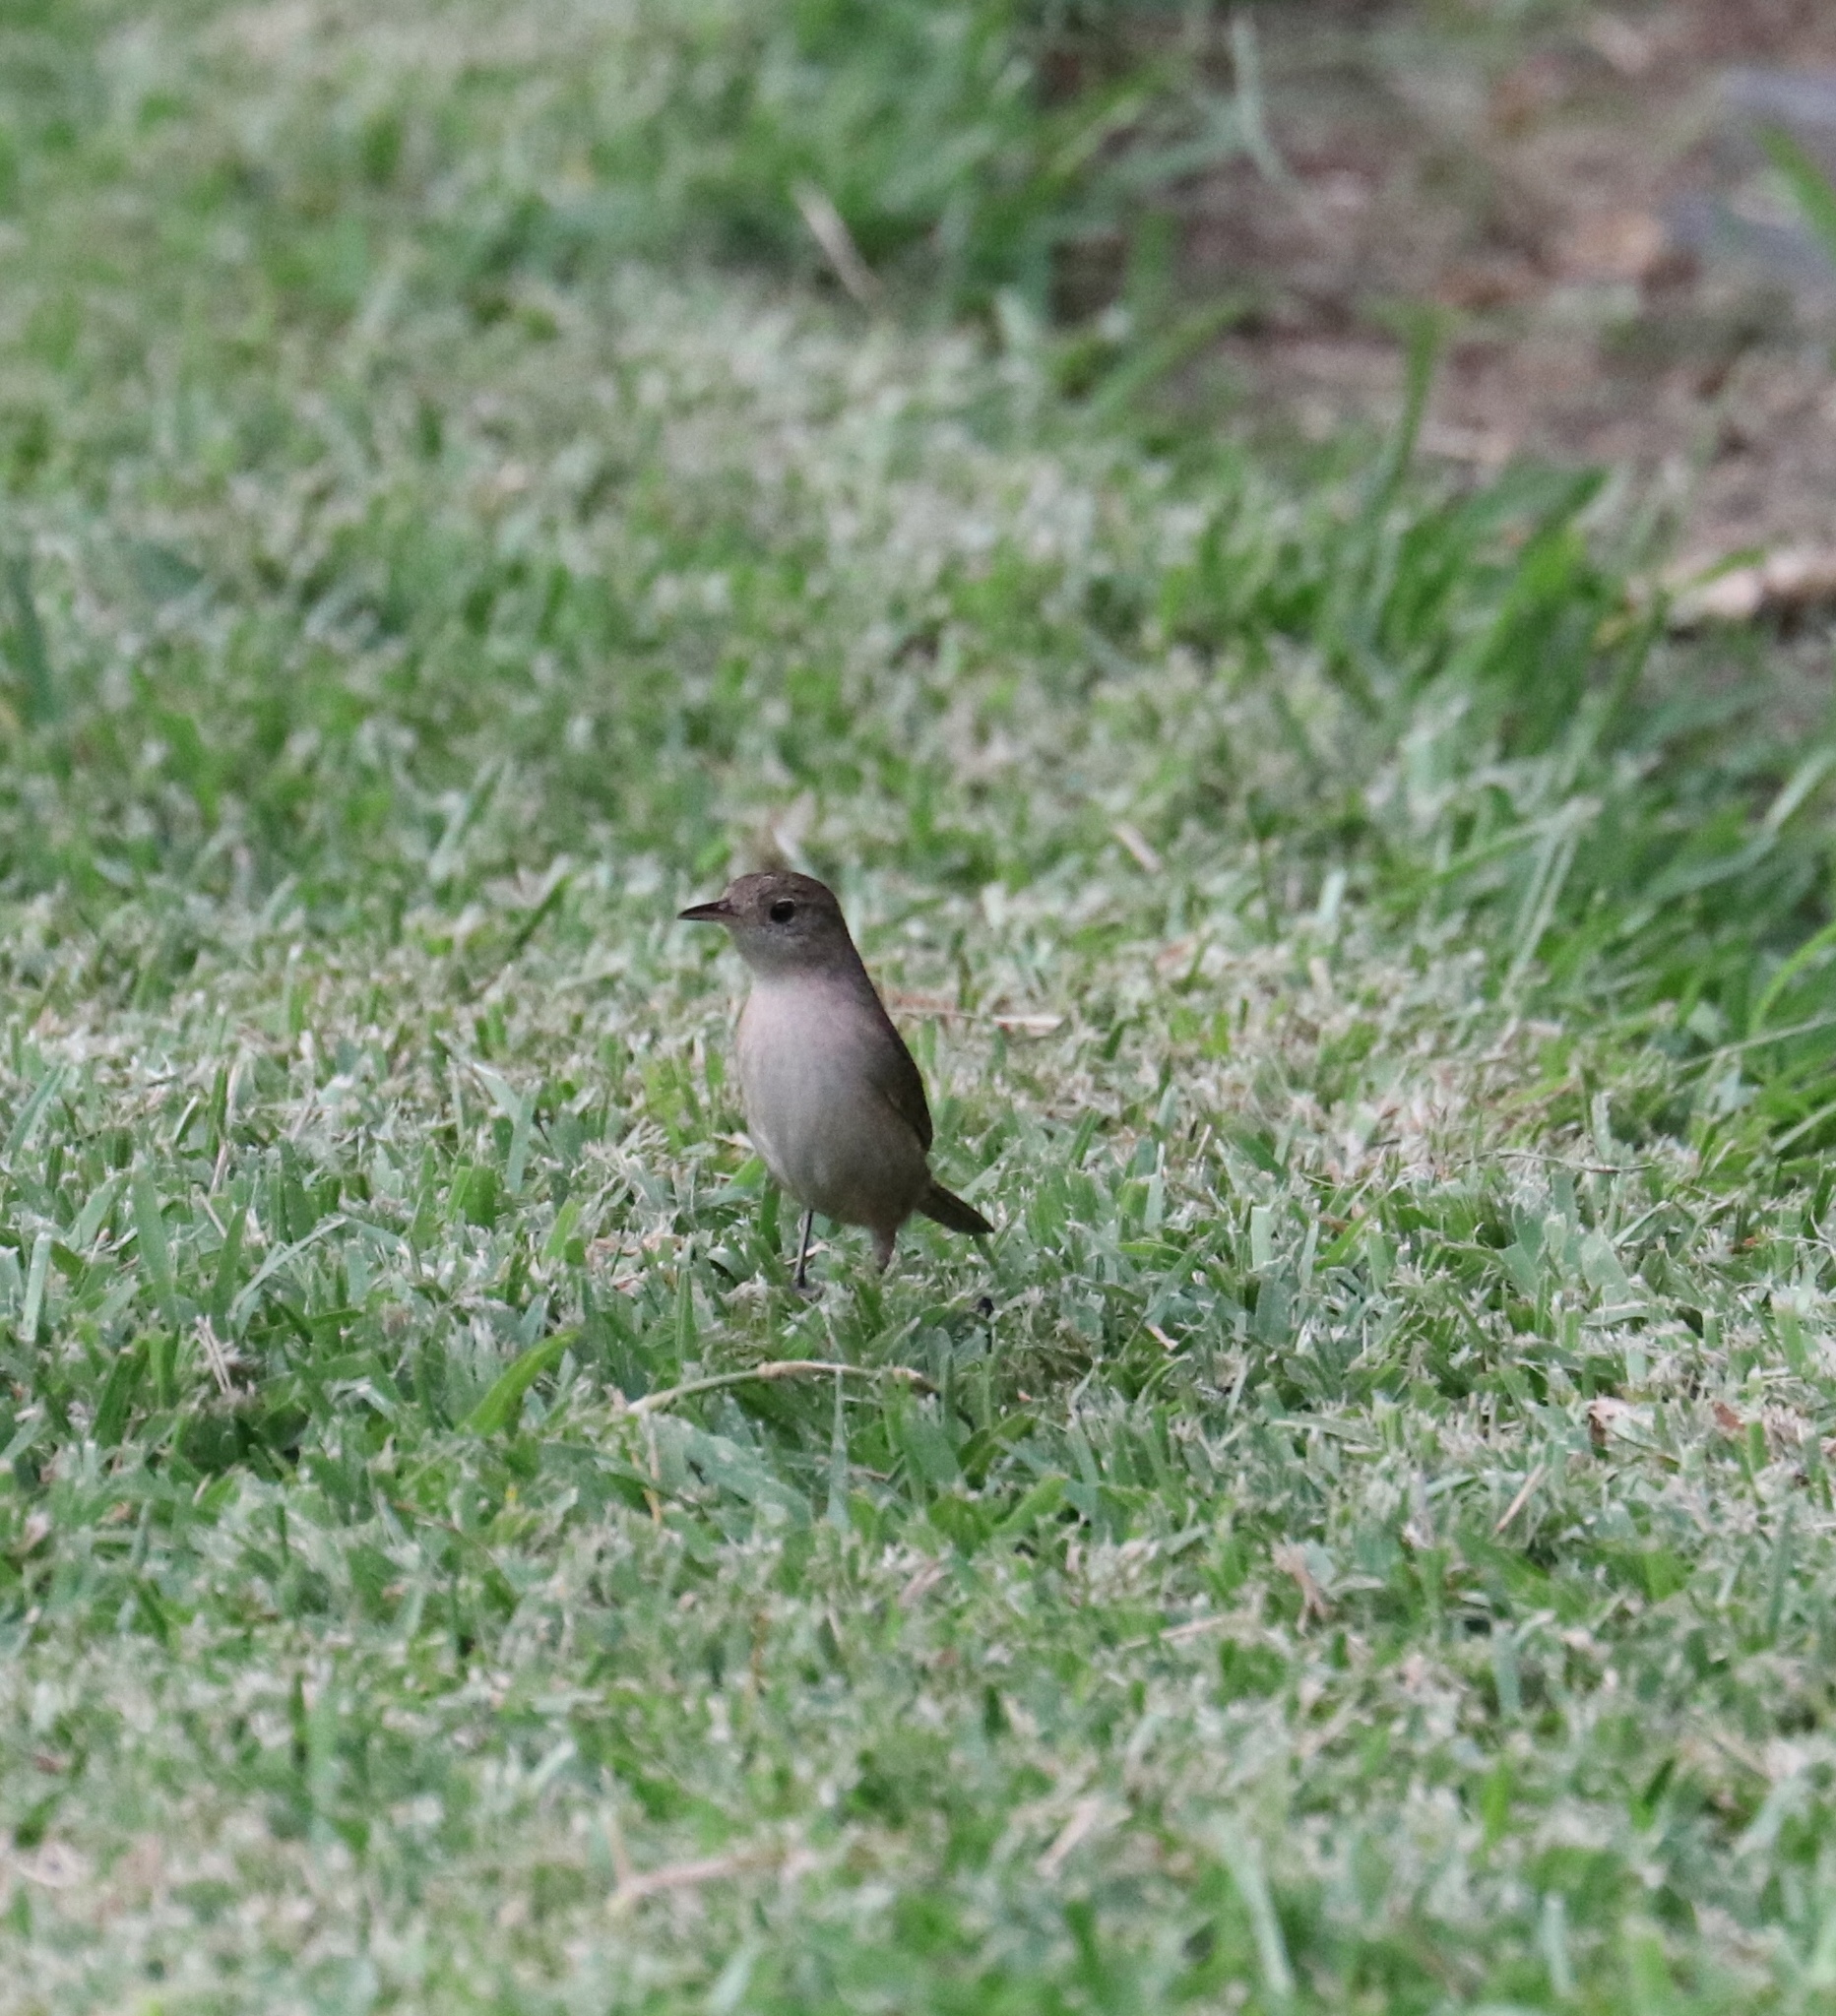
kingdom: Animalia
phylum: Chordata
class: Aves
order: Passeriformes
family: Troglodytidae
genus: Troglodytes
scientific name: Troglodytes aedon
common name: House wren
